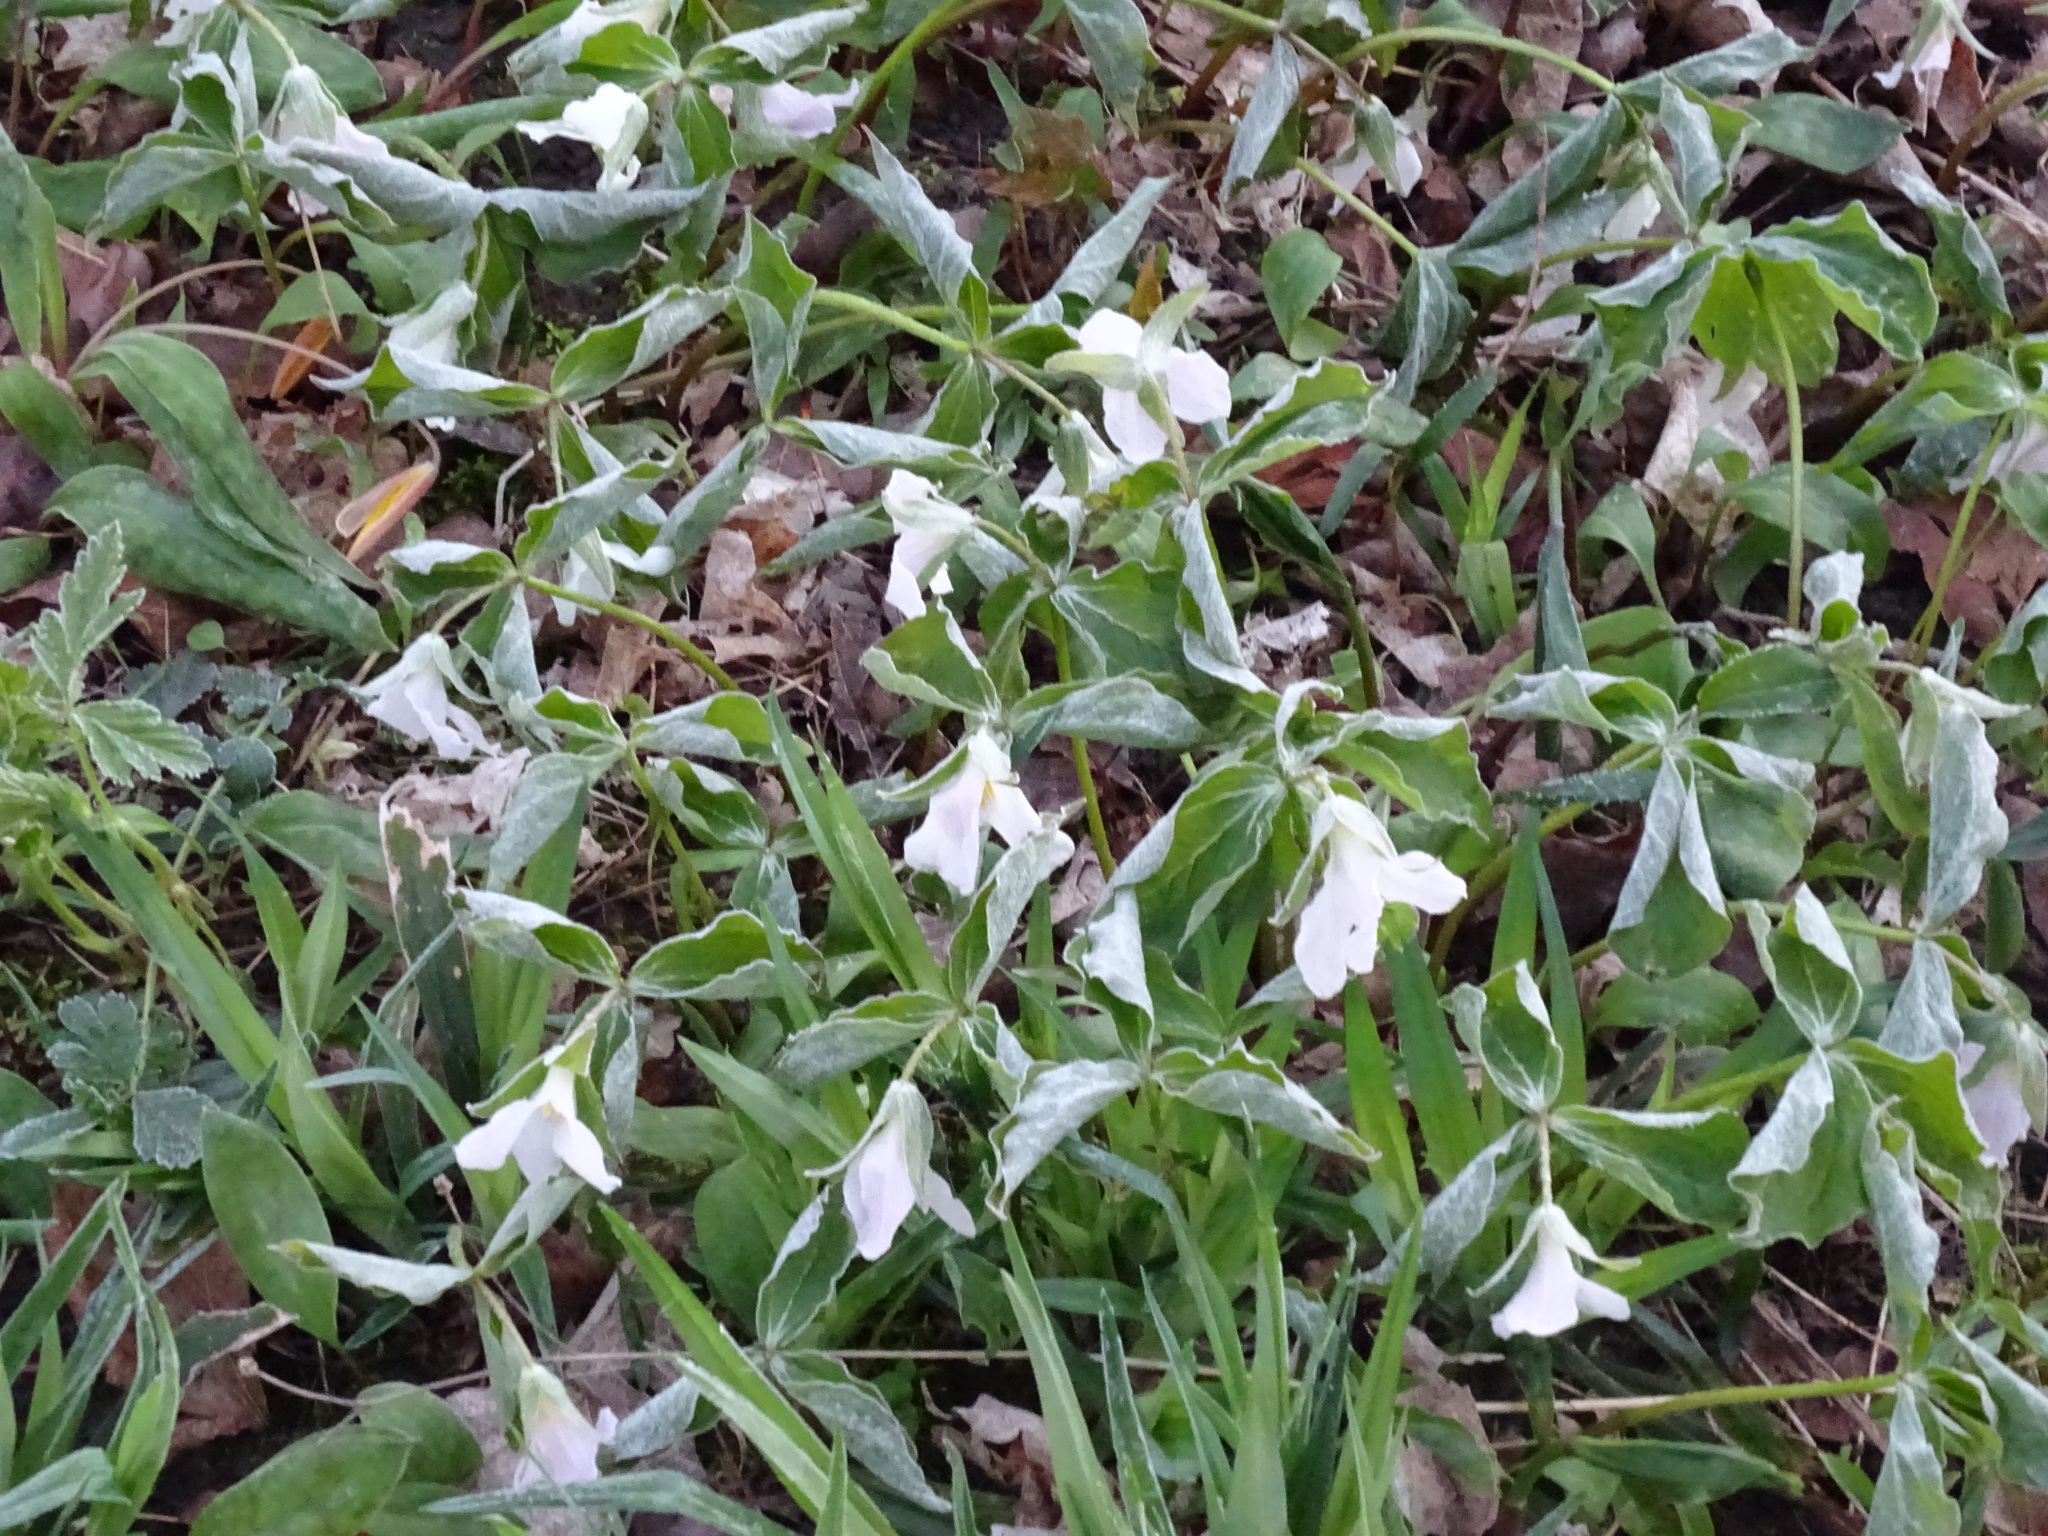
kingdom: Plantae
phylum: Tracheophyta
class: Liliopsida
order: Liliales
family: Melanthiaceae
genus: Trillium
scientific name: Trillium grandiflorum
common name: Great white trillium
